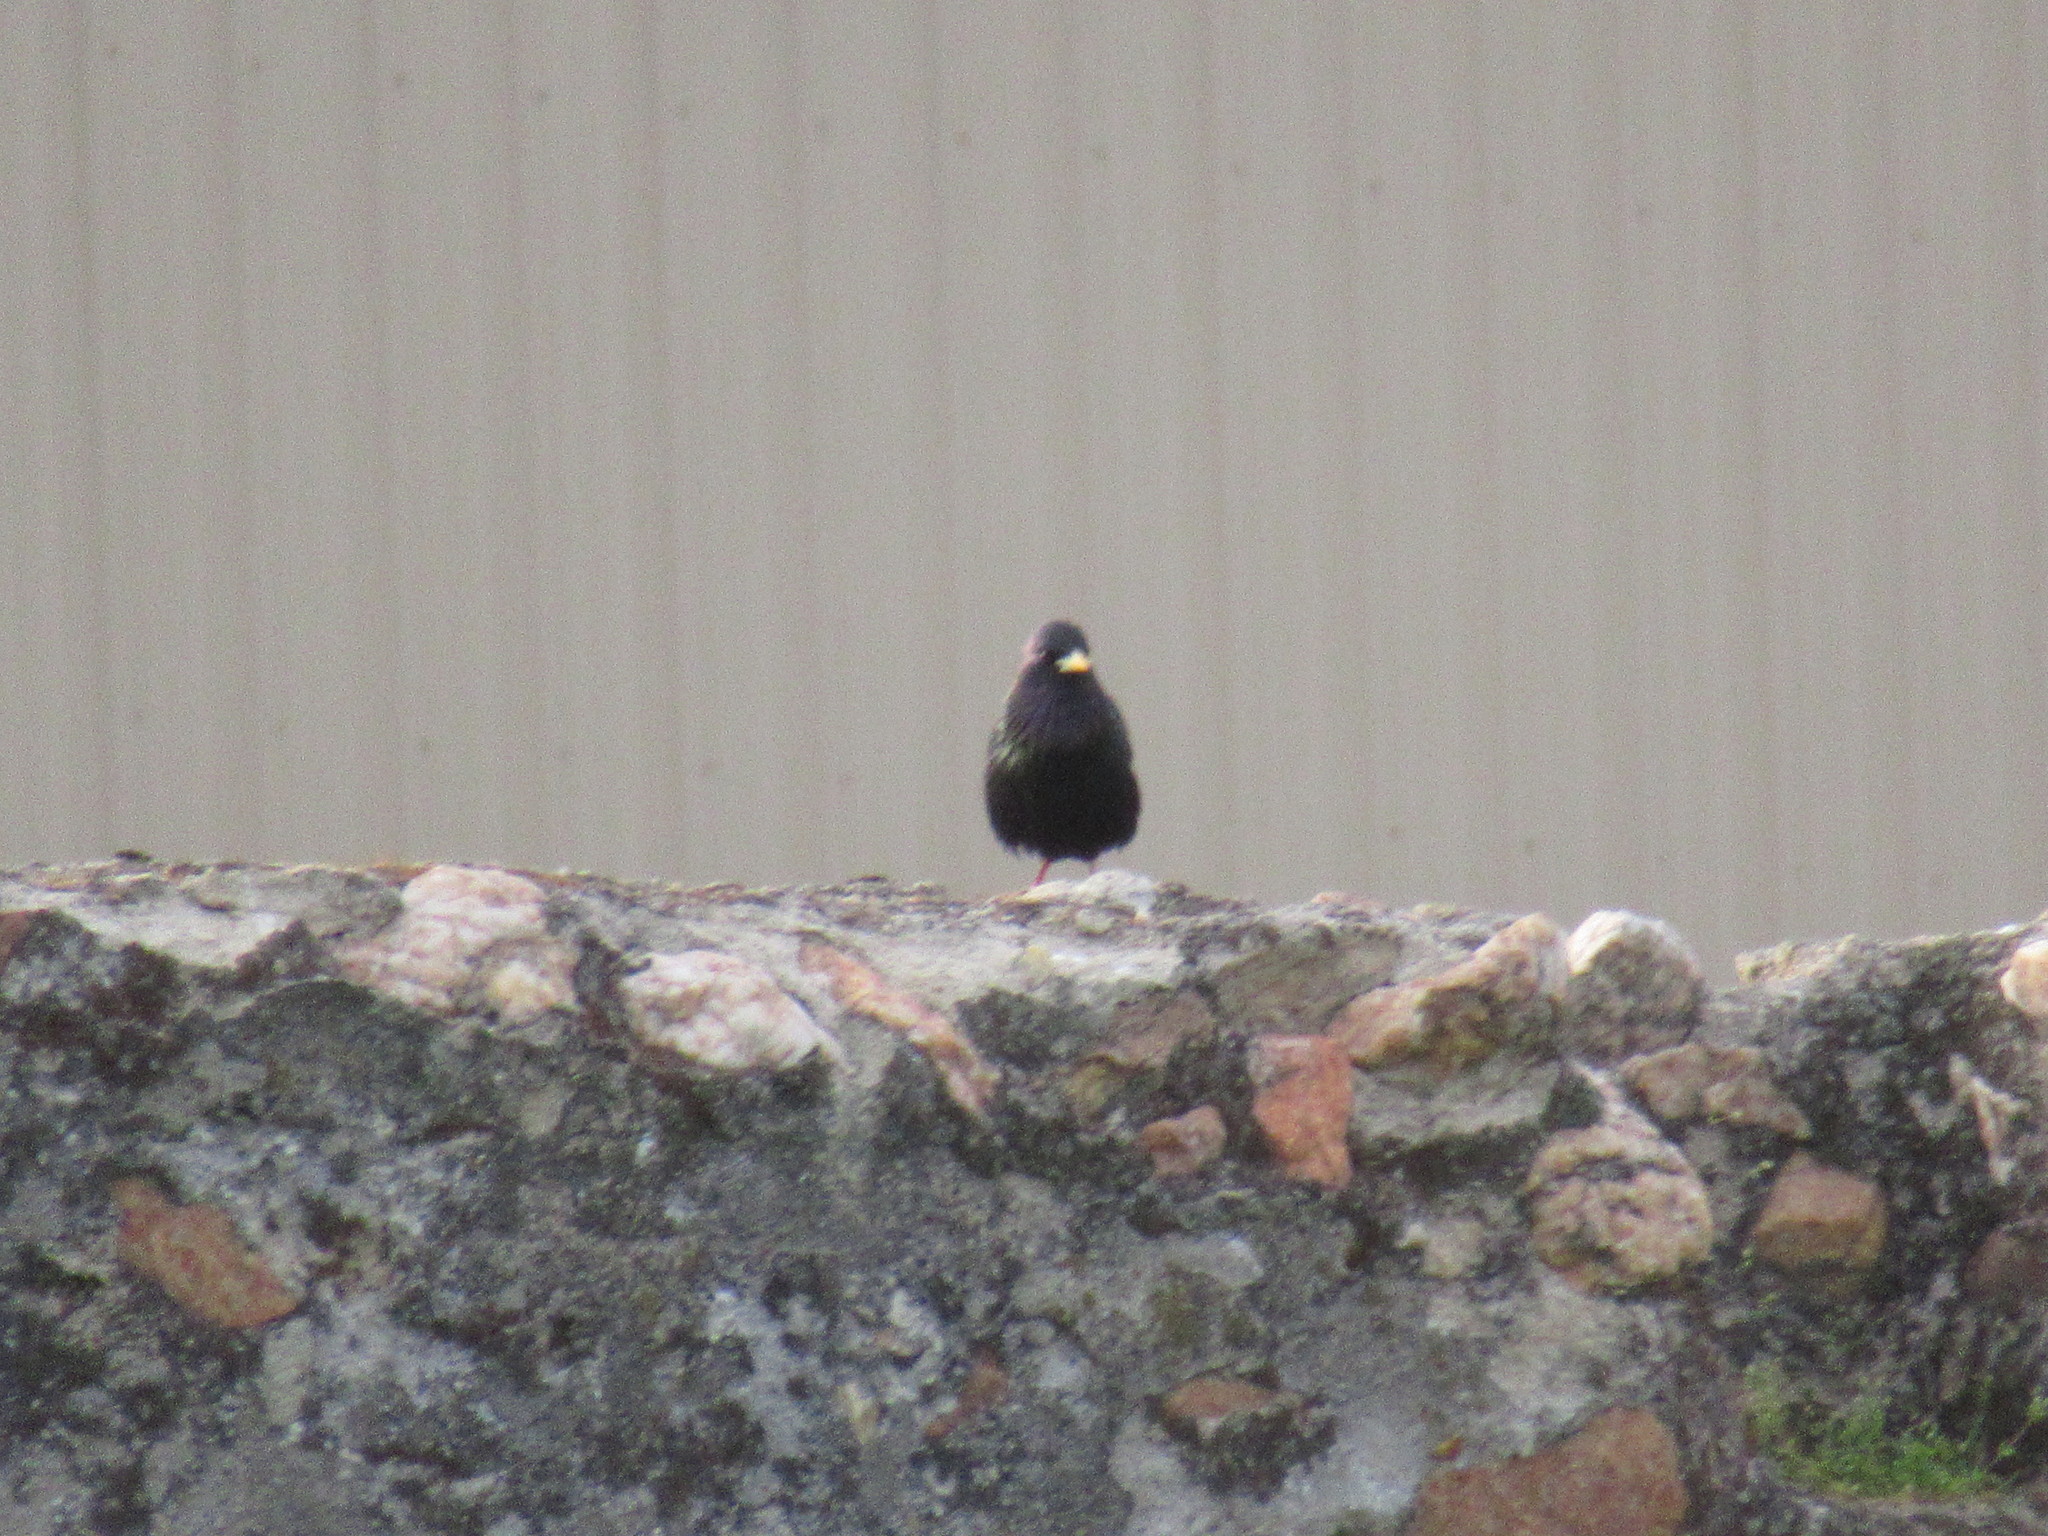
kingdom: Animalia
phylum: Chordata
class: Aves
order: Passeriformes
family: Sturnidae
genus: Sturnus
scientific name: Sturnus vulgaris
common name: Common starling
